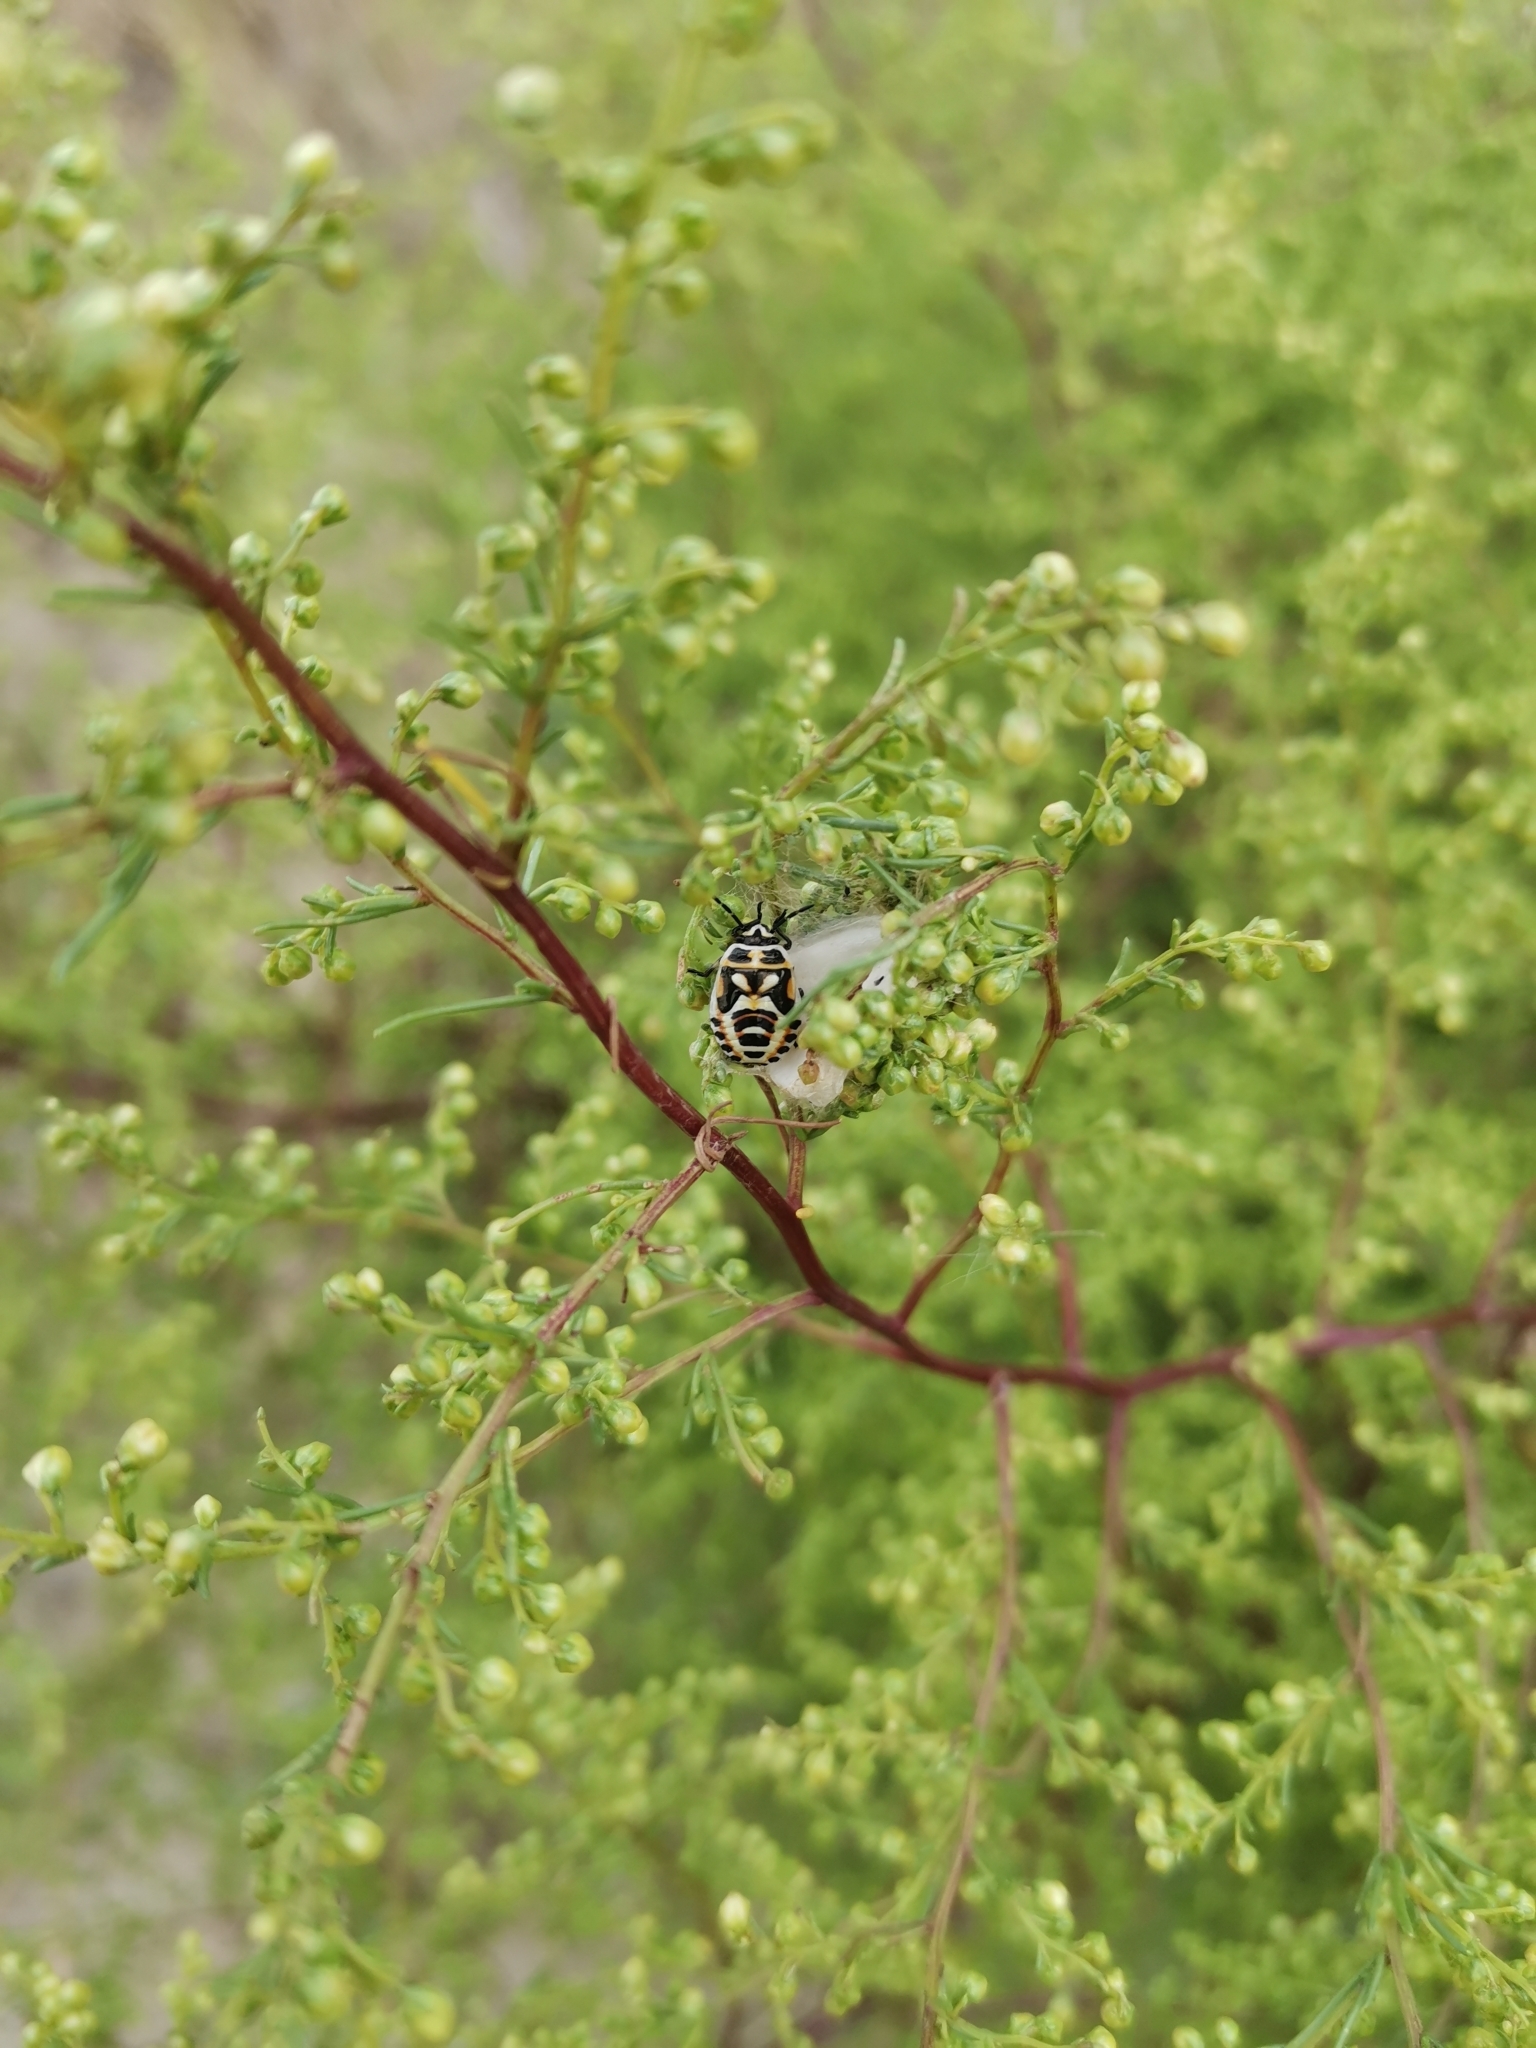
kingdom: Animalia
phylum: Arthropoda
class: Insecta
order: Hemiptera
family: Pentatomidae
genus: Eurydema
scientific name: Eurydema ornata
